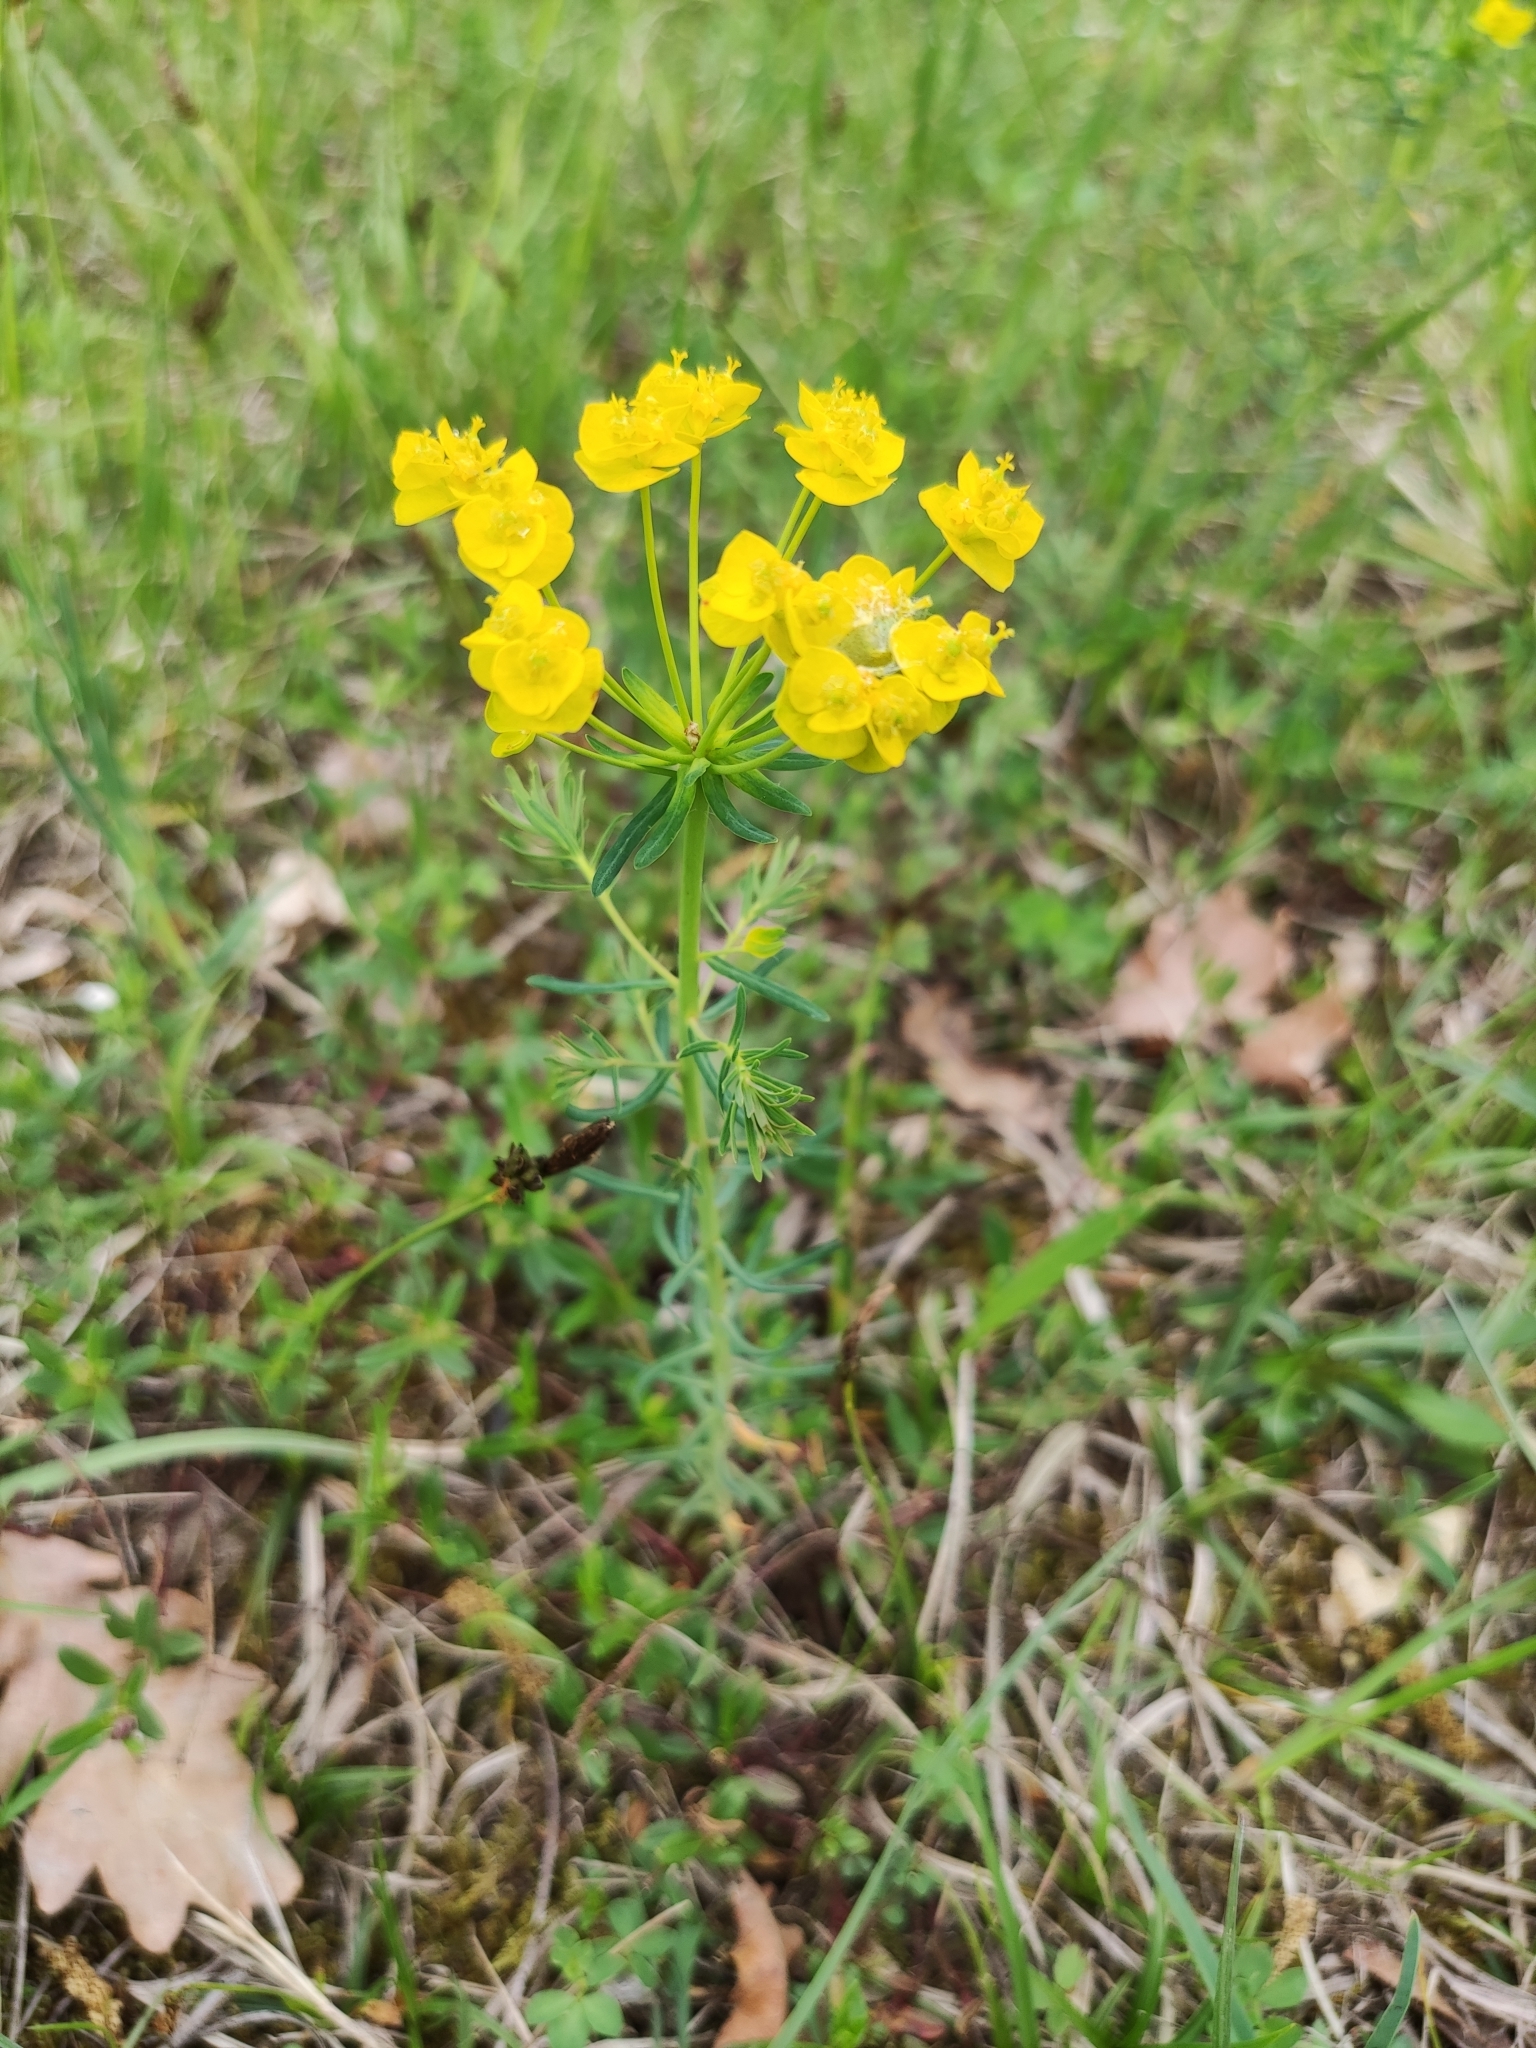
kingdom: Plantae
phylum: Tracheophyta
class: Magnoliopsida
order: Malpighiales
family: Euphorbiaceae
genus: Euphorbia
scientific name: Euphorbia cyparissias
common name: Cypress spurge
